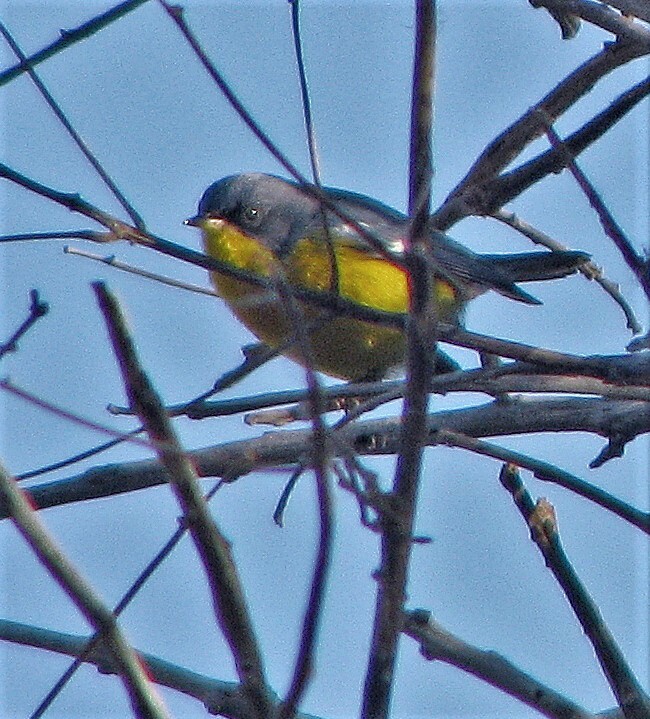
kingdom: Animalia
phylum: Chordata
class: Aves
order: Passeriformes
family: Parulidae
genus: Setophaga
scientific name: Setophaga pitiayumi
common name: Tropical parula
